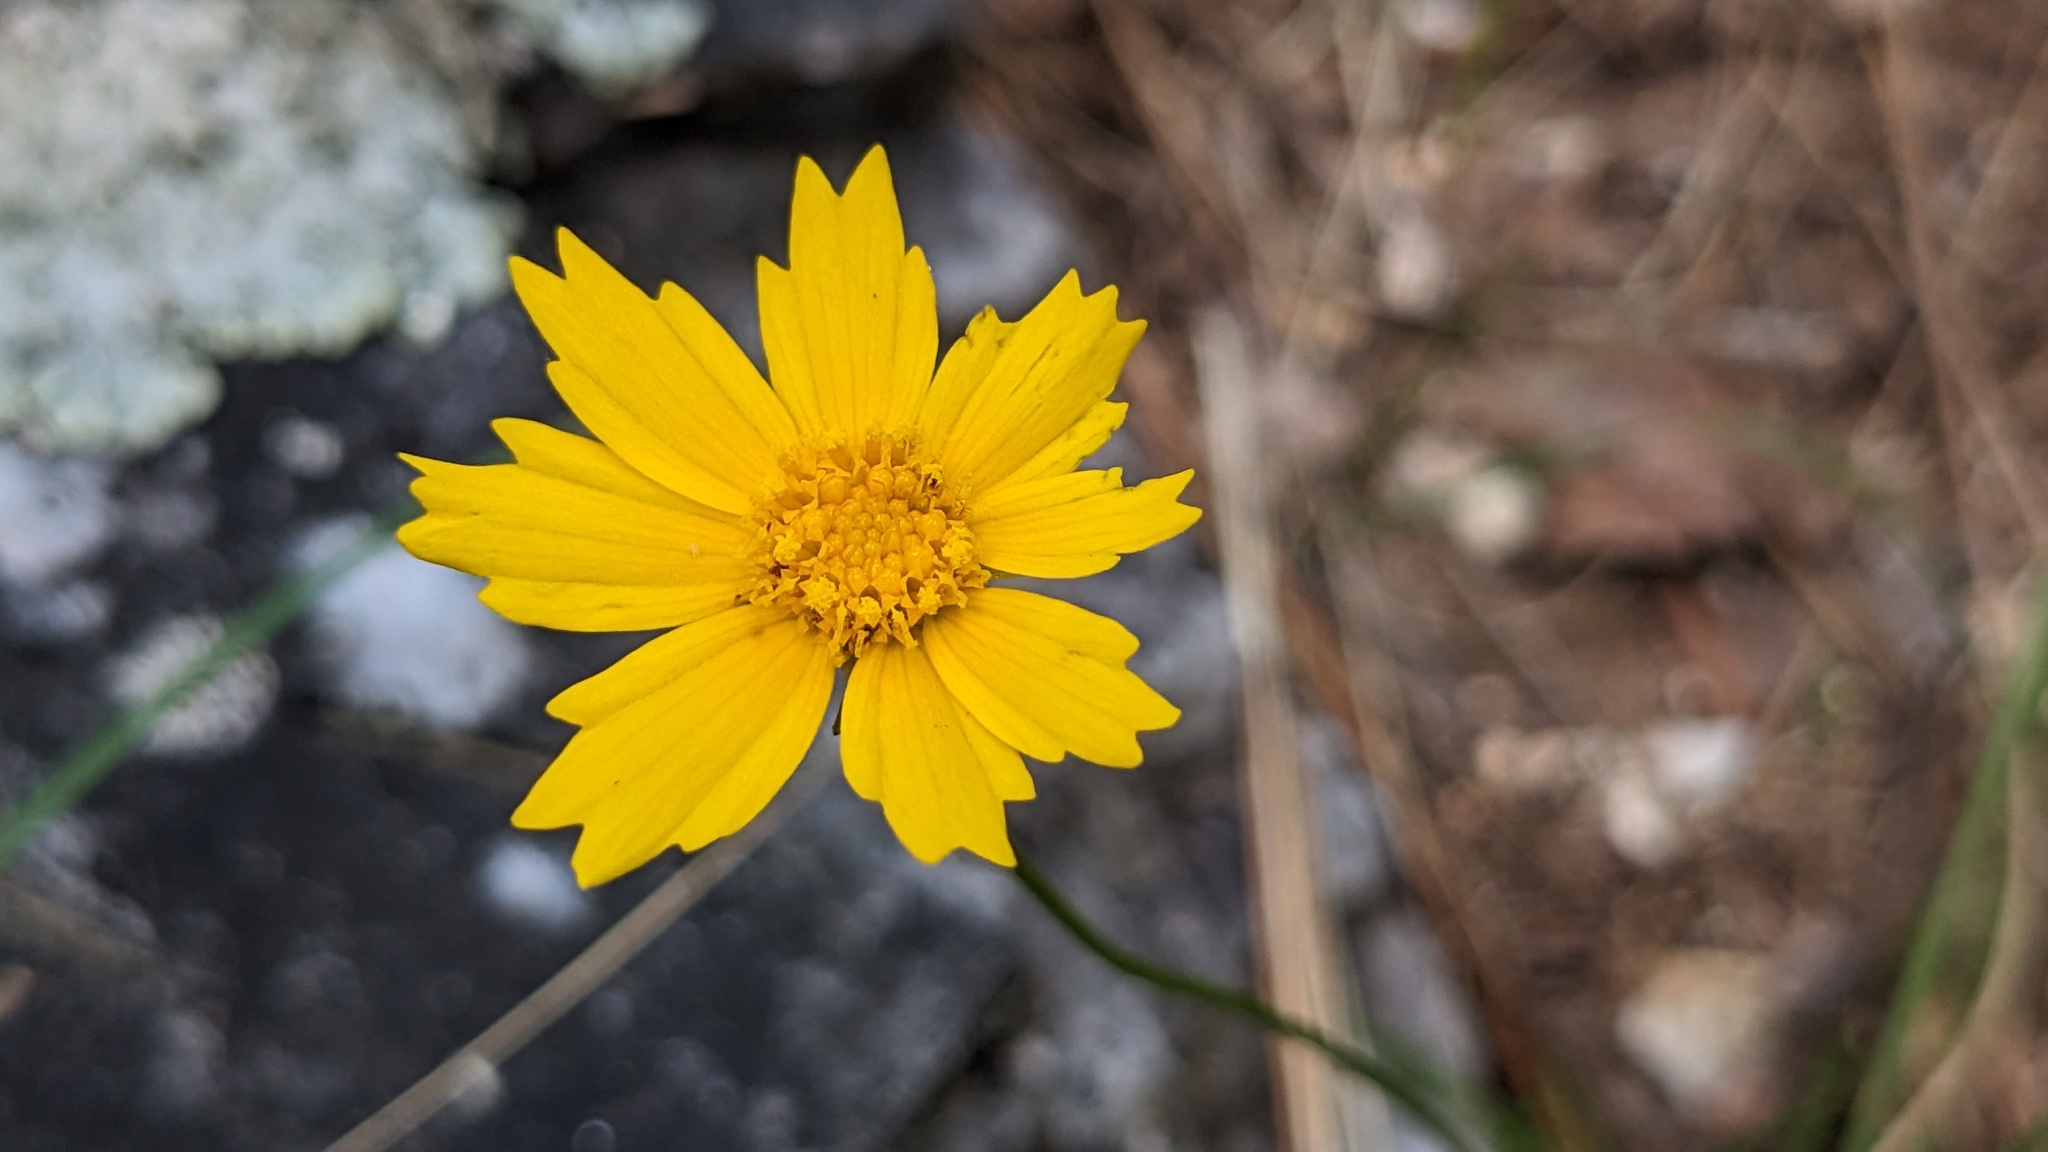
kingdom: Plantae
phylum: Tracheophyta
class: Magnoliopsida
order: Asterales
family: Asteraceae
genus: Coreopsis
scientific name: Coreopsis grandiflora
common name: Large-flowered tickseed
